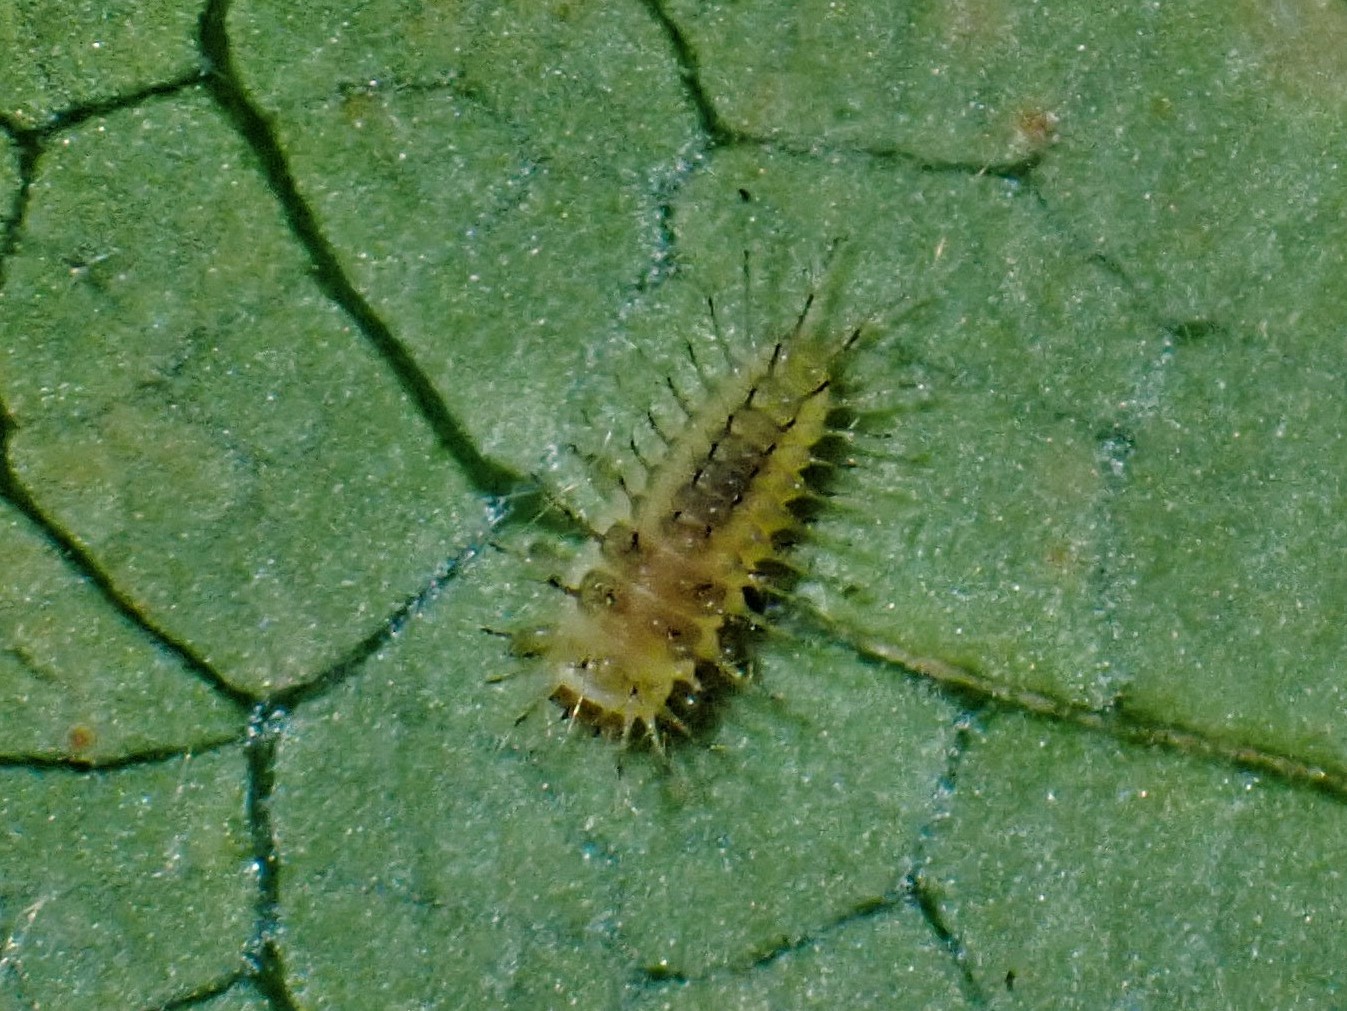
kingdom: Animalia
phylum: Arthropoda
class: Insecta
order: Coleoptera
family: Coccinellidae
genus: Halmus
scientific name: Halmus chalybeus
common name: Steel blue ladybird beetle
